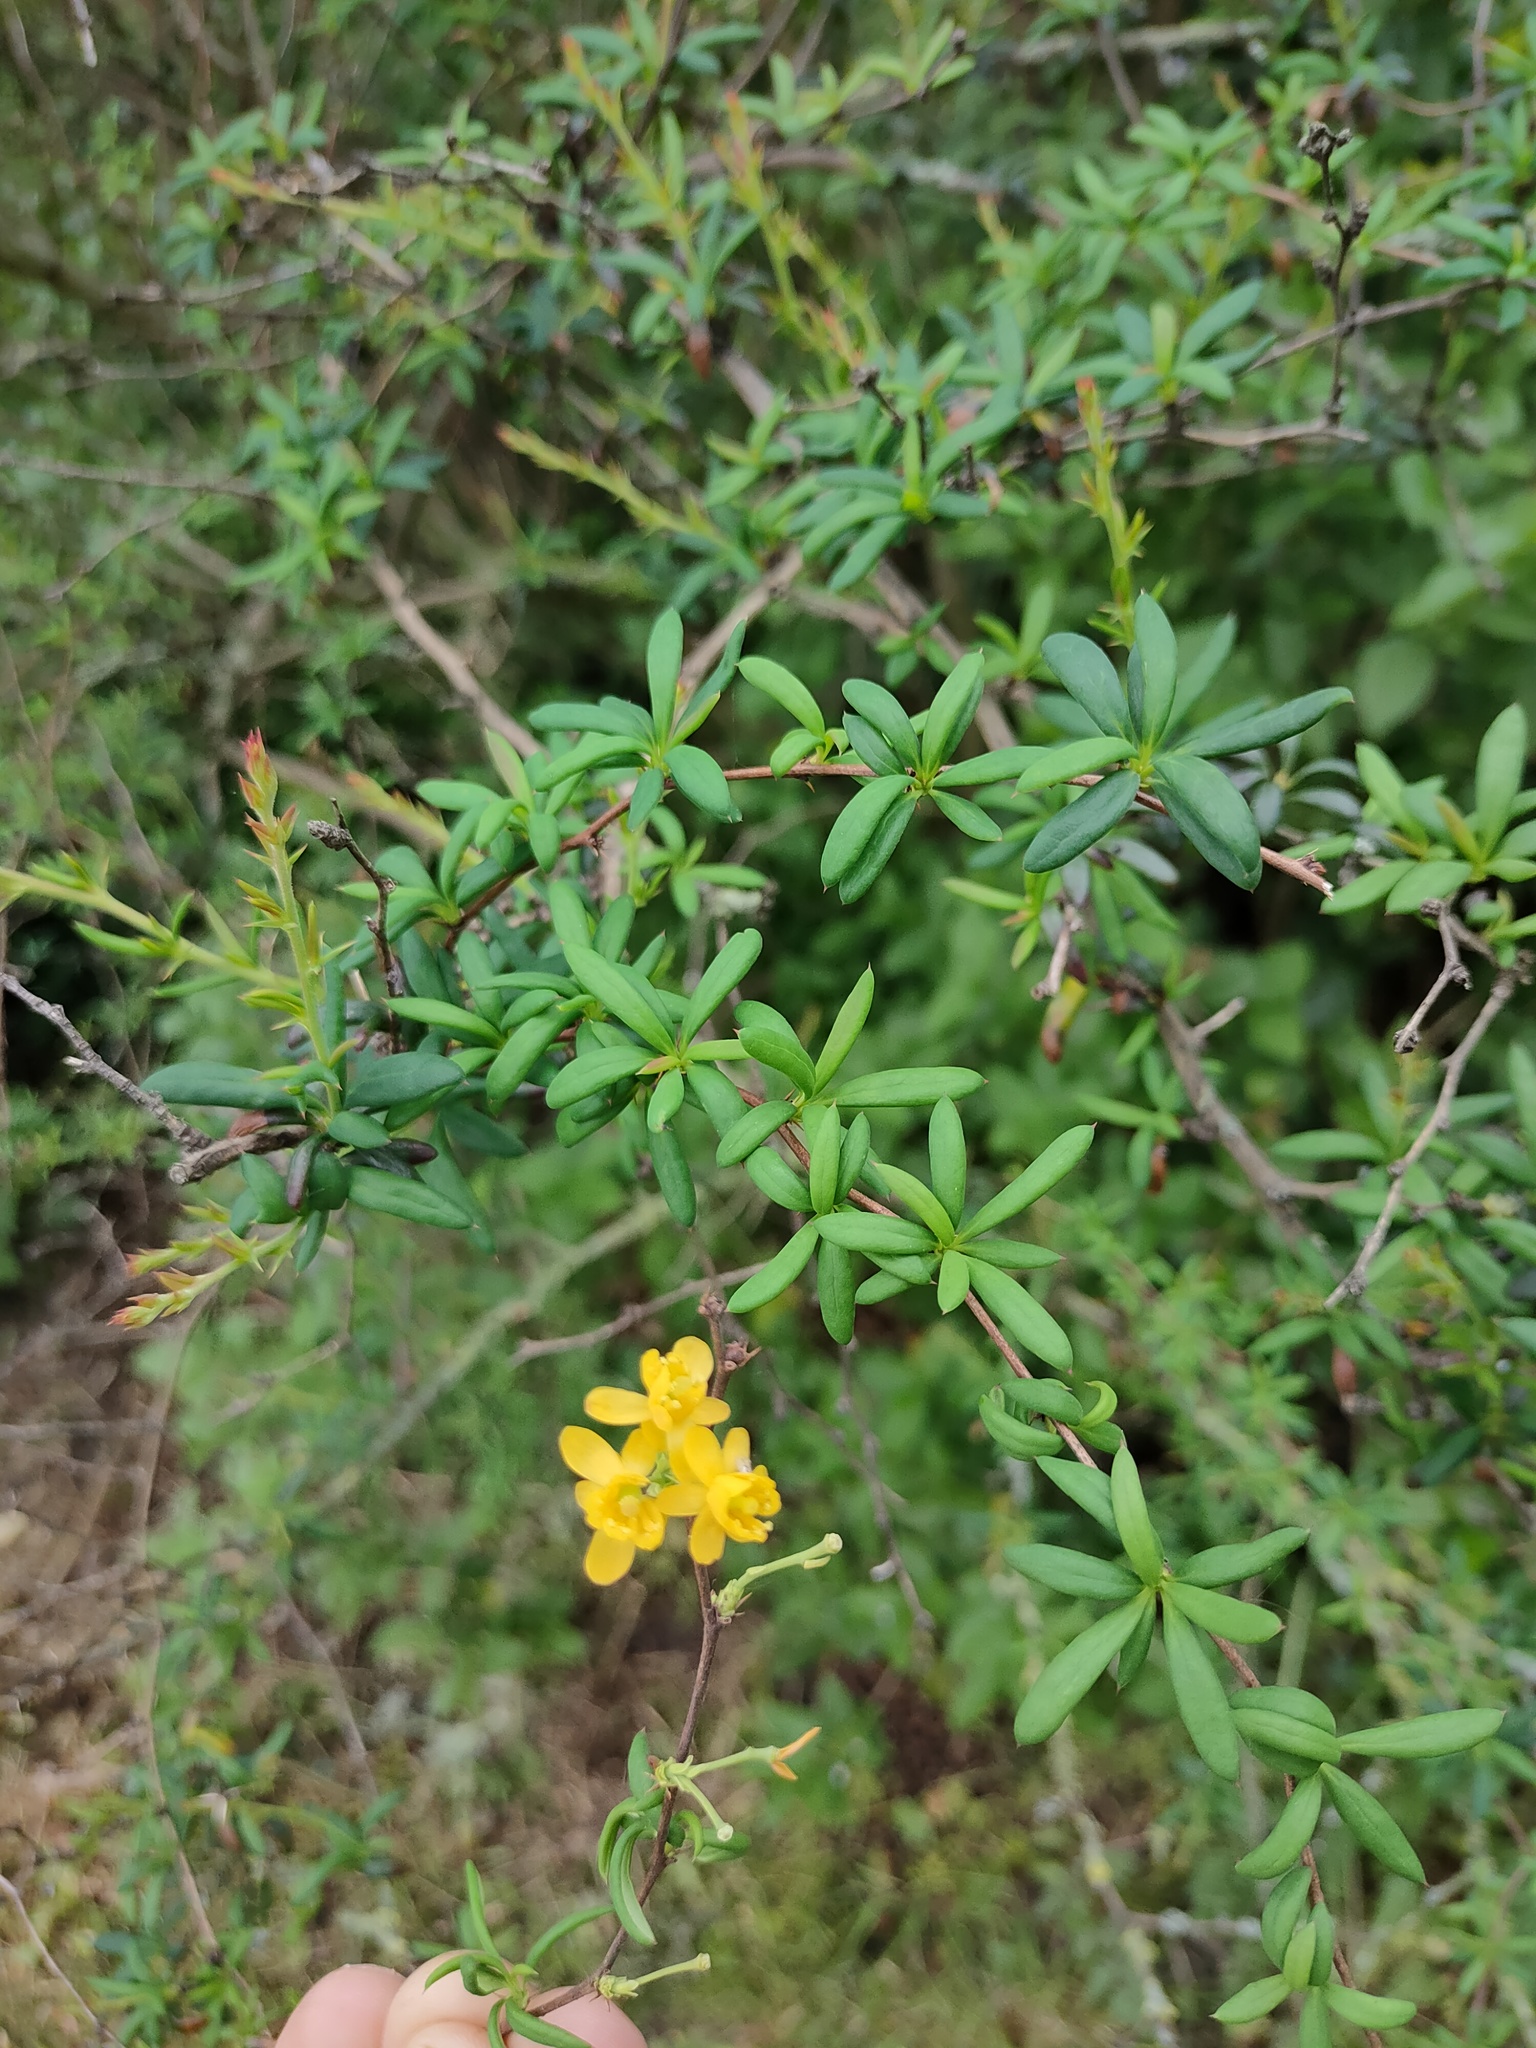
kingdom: Plantae
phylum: Tracheophyta
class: Magnoliopsida
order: Ranunculales
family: Berberidaceae
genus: Berberis
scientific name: Berberis stenophylla
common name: Hedge barberry
